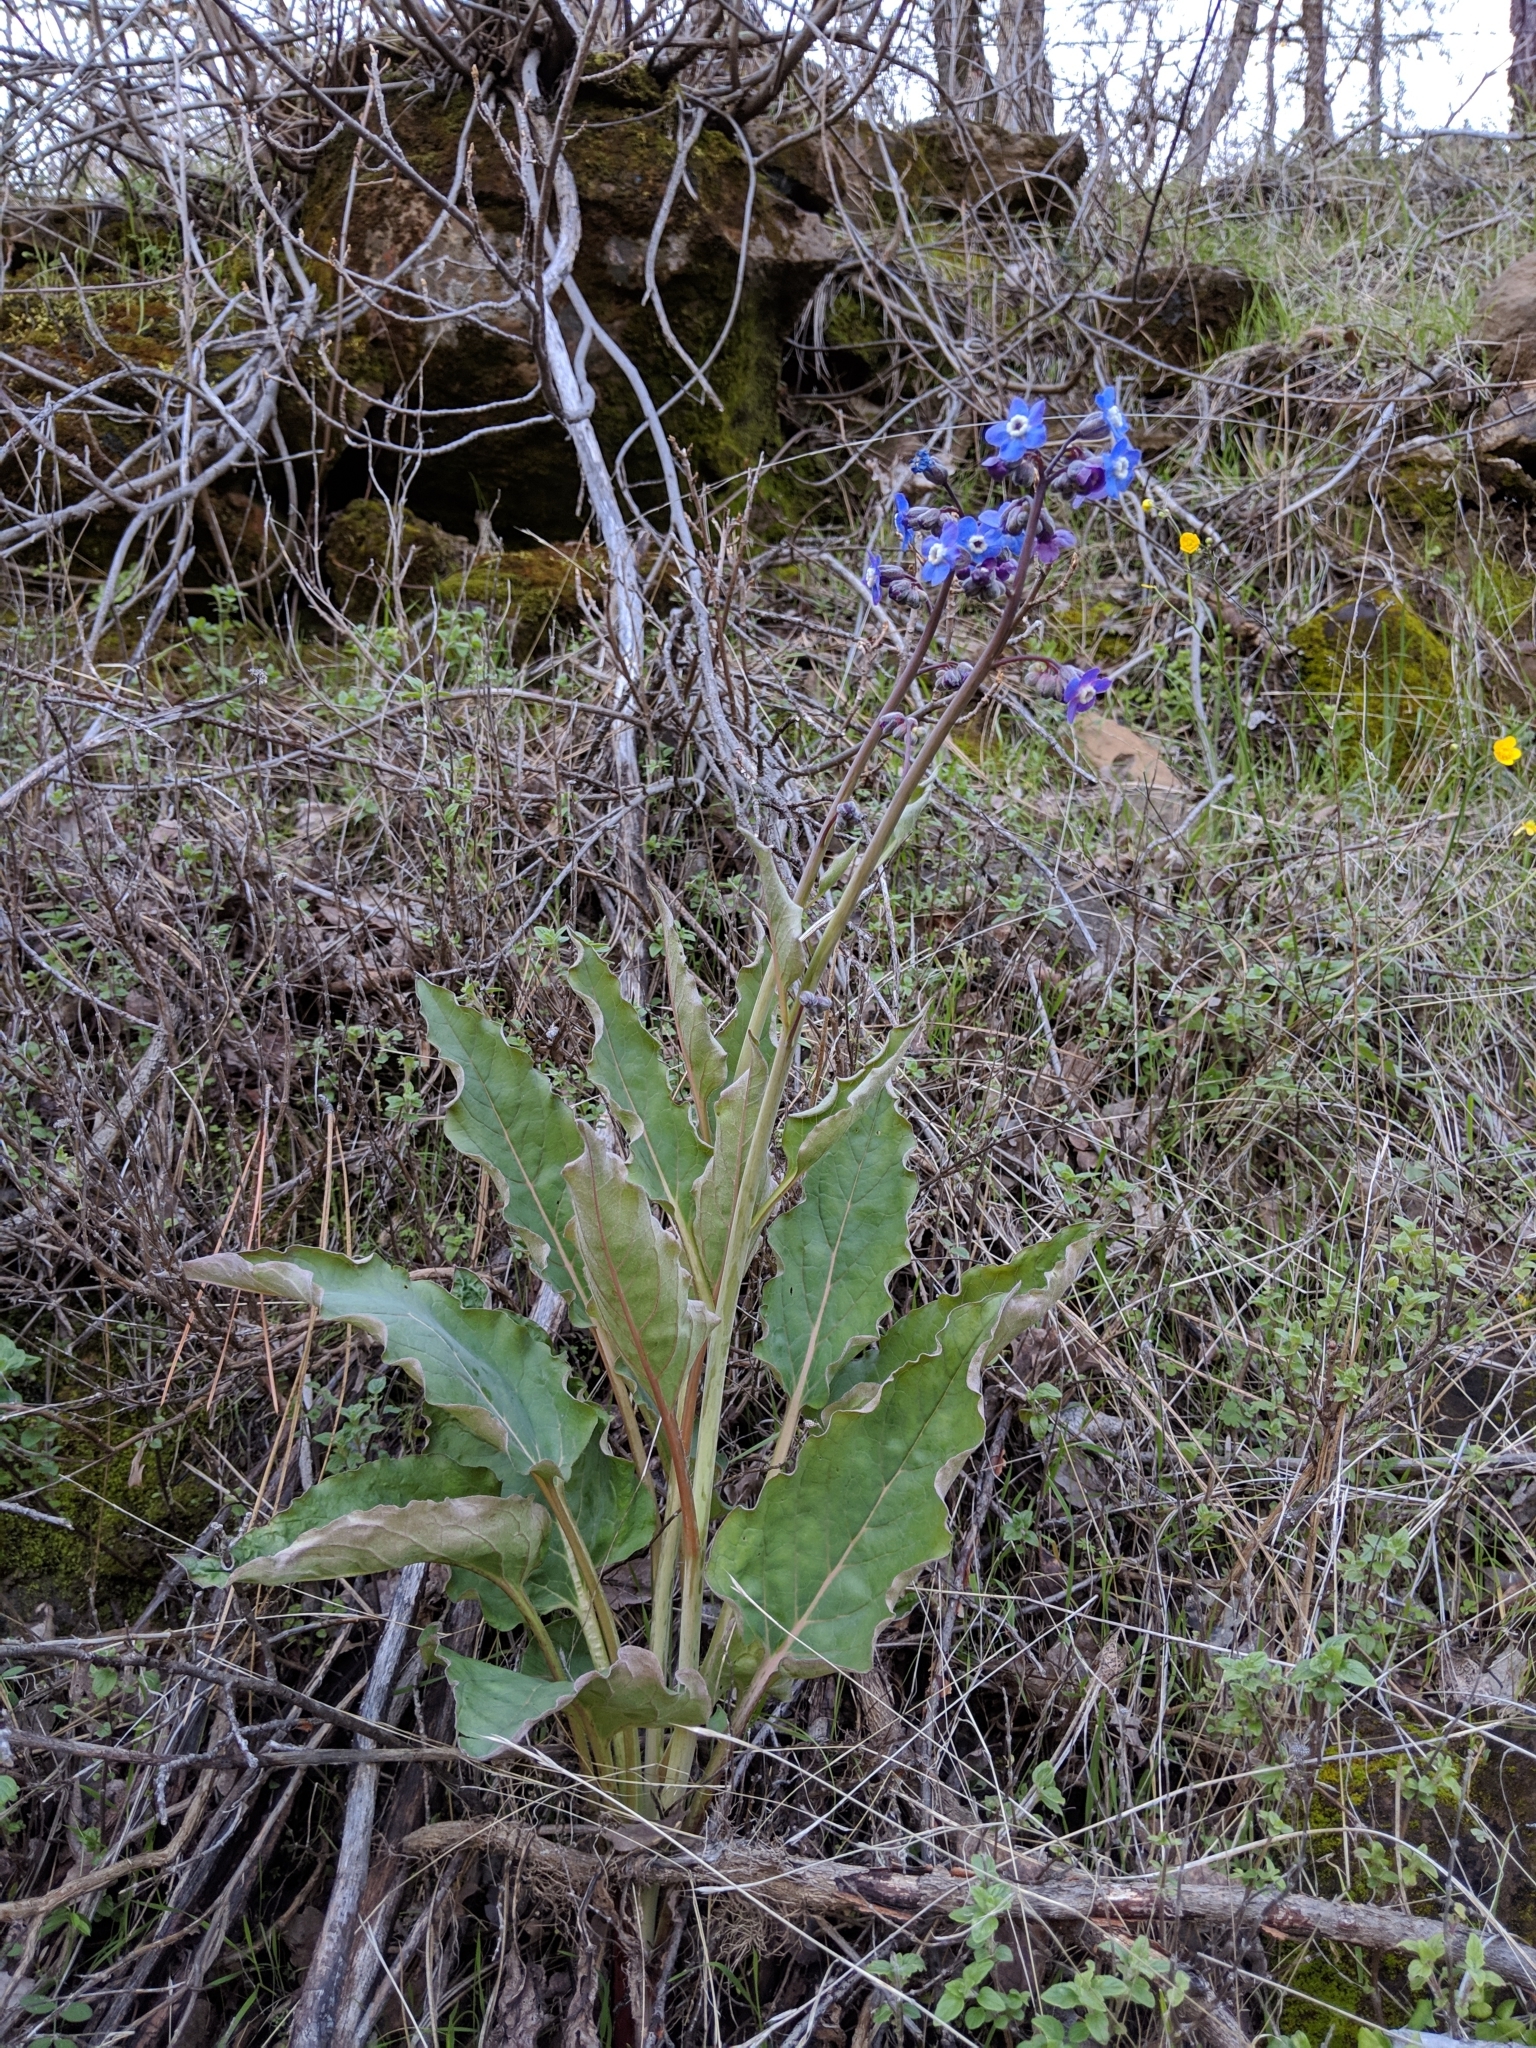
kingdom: Plantae
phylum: Tracheophyta
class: Magnoliopsida
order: Boraginales
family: Boraginaceae
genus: Adelinia
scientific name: Adelinia grande
